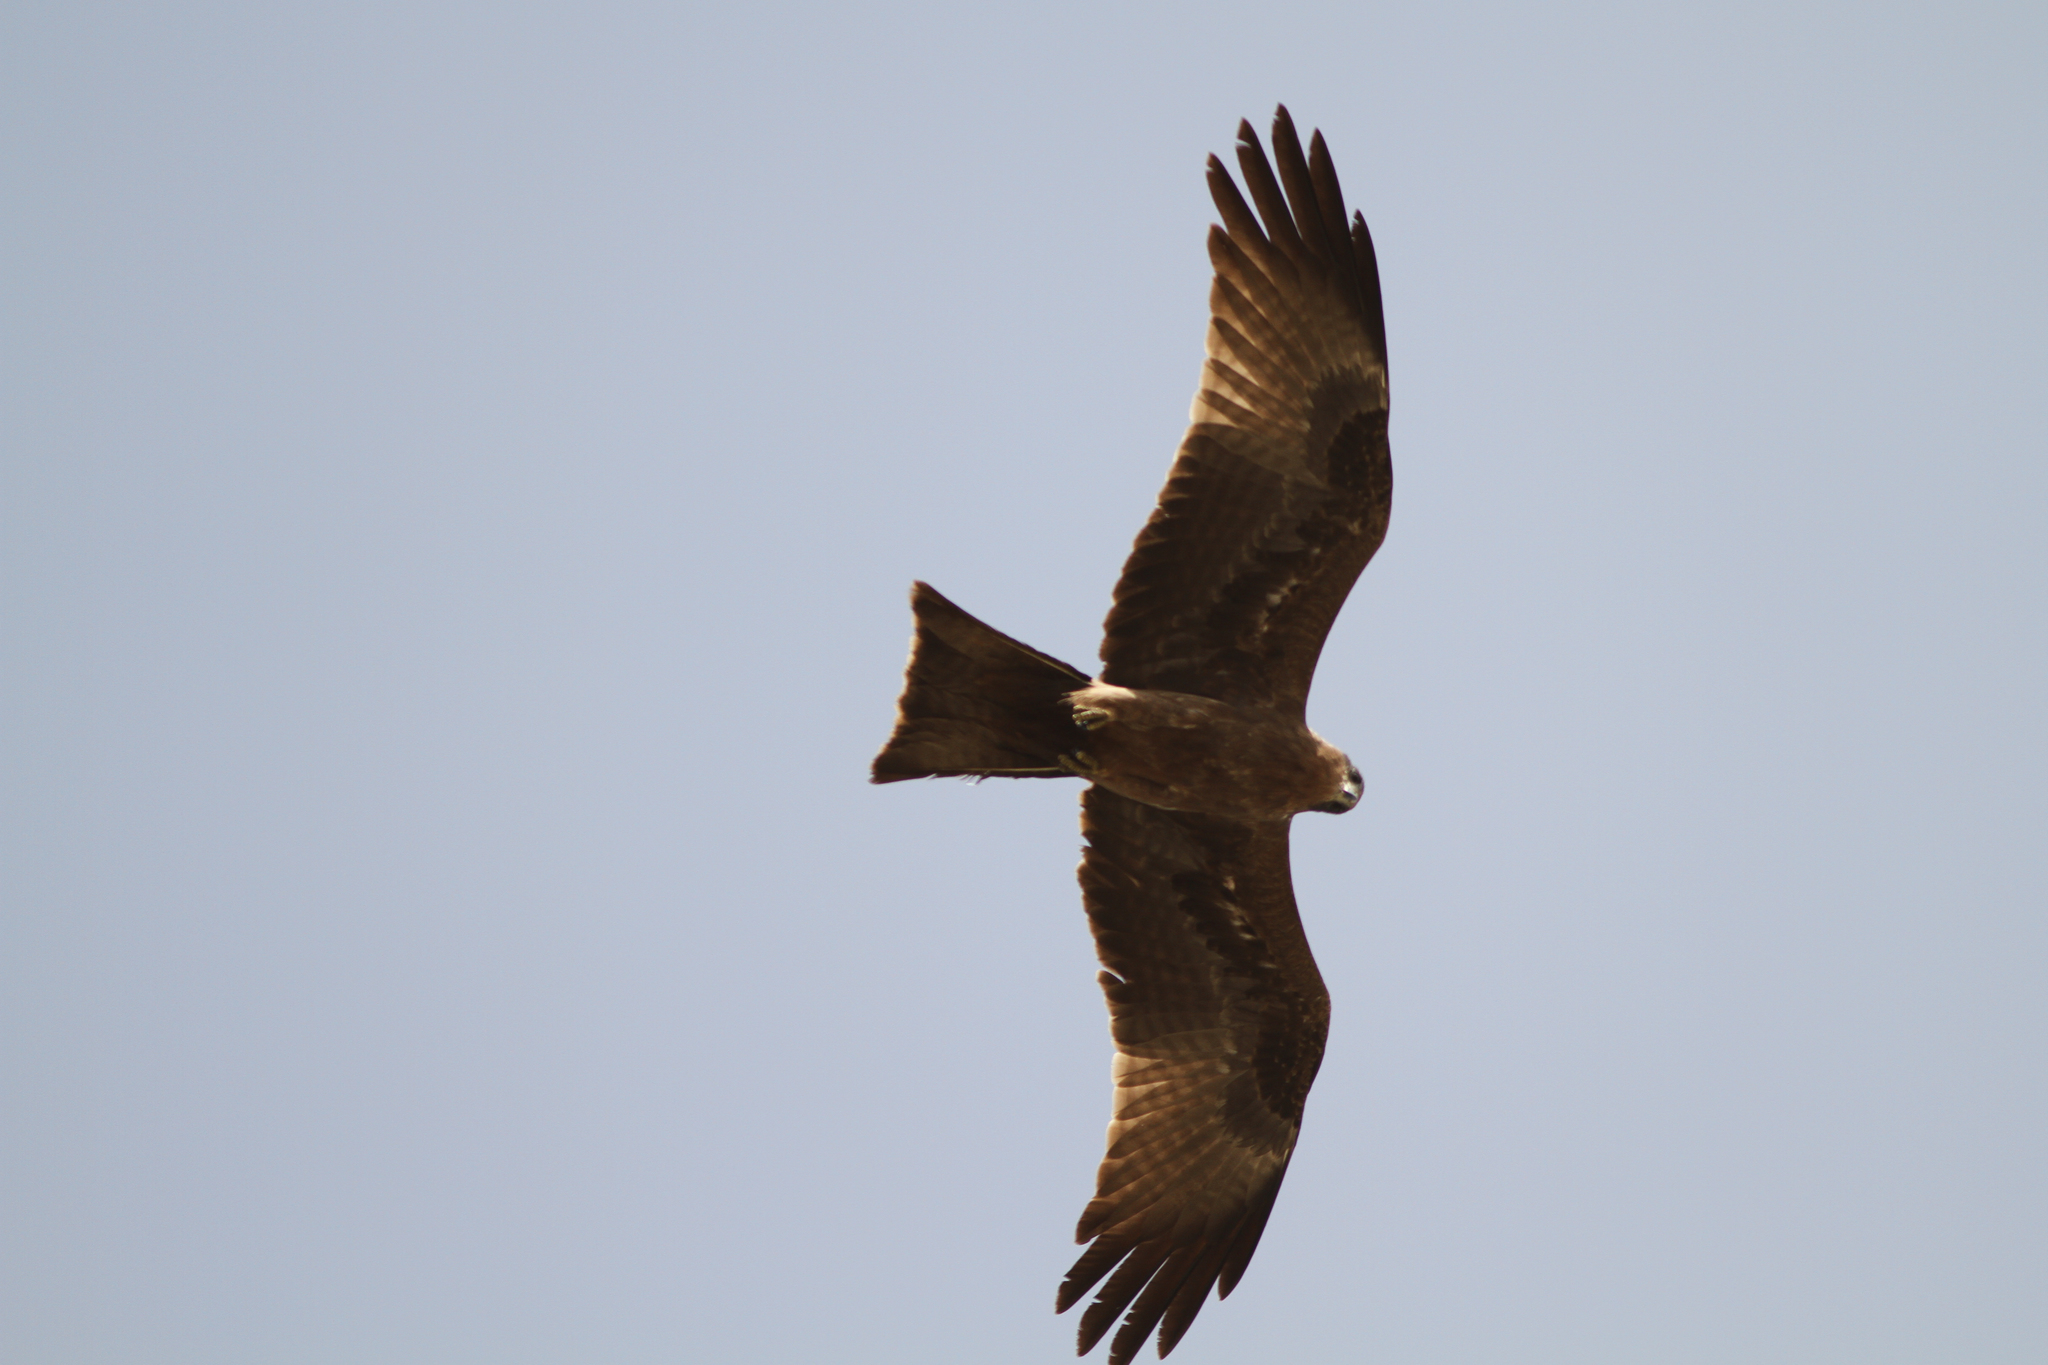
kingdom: Animalia
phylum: Chordata
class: Aves
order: Accipitriformes
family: Accipitridae
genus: Milvus
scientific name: Milvus migrans
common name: Black kite
